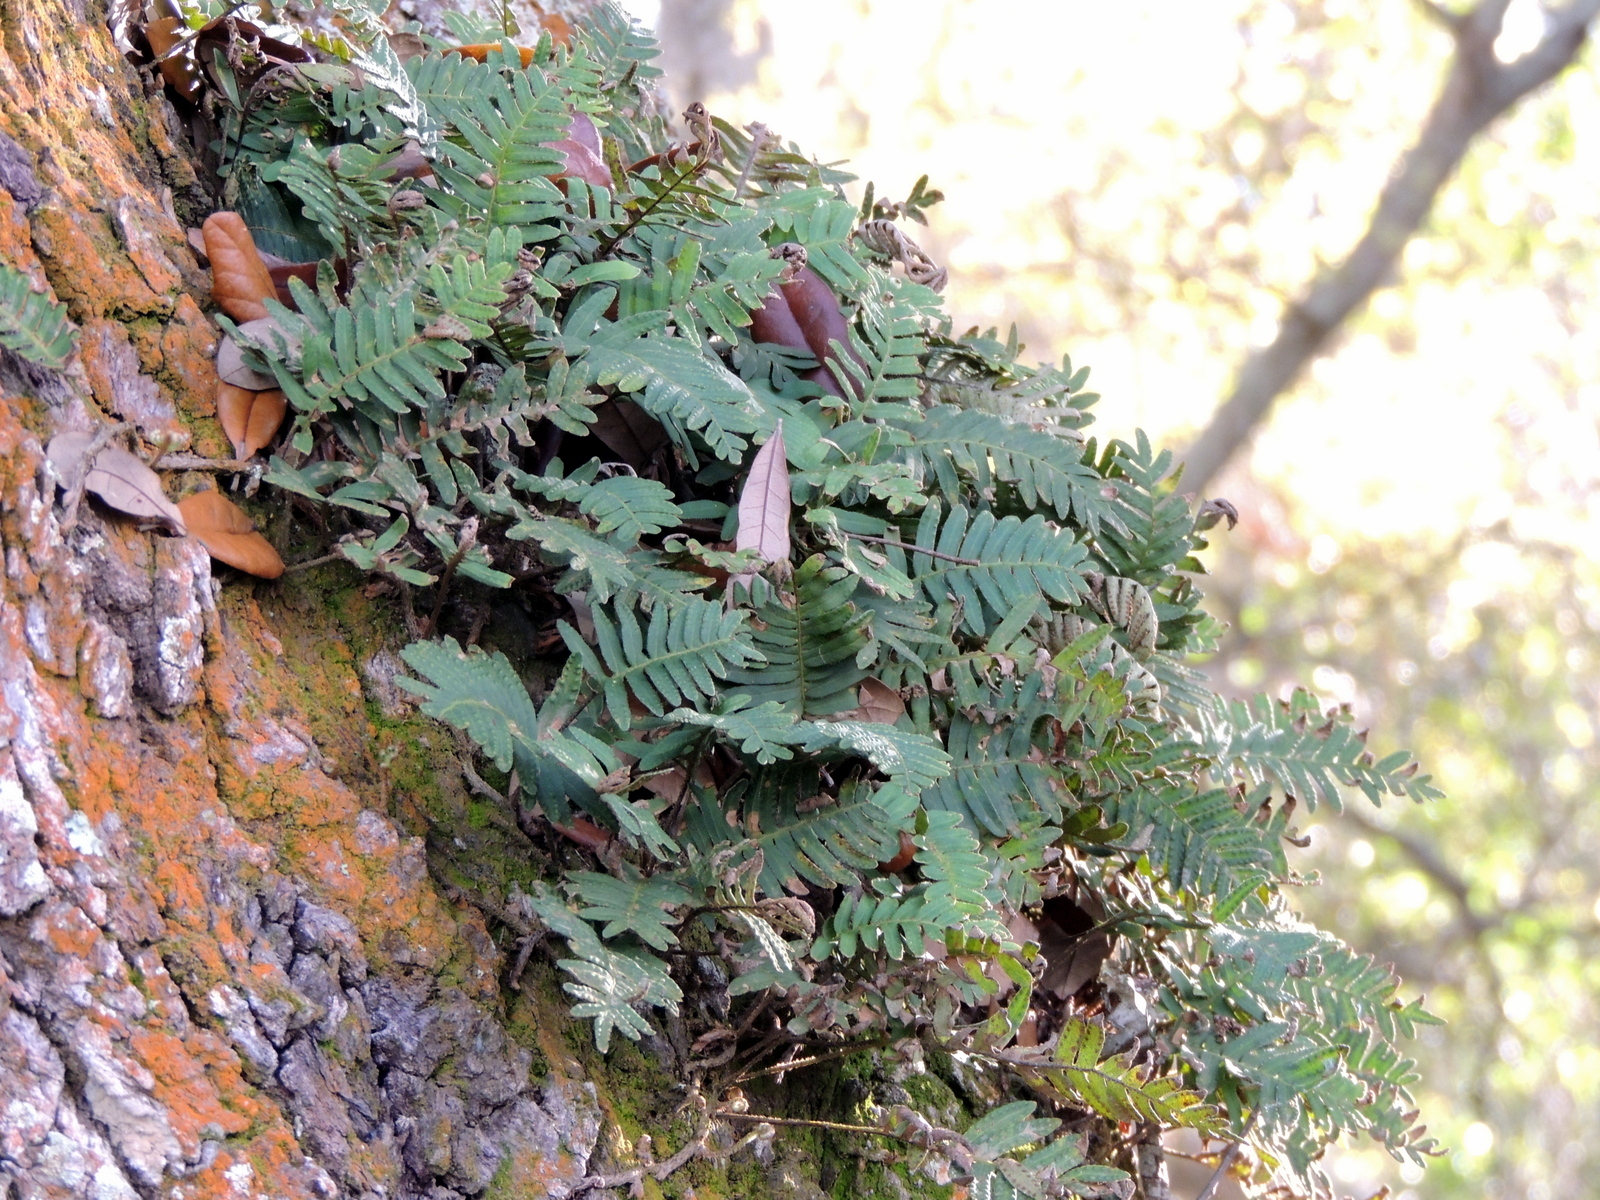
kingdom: Plantae
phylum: Tracheophyta
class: Polypodiopsida
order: Polypodiales
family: Polypodiaceae
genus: Pleopeltis
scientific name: Pleopeltis michauxiana
